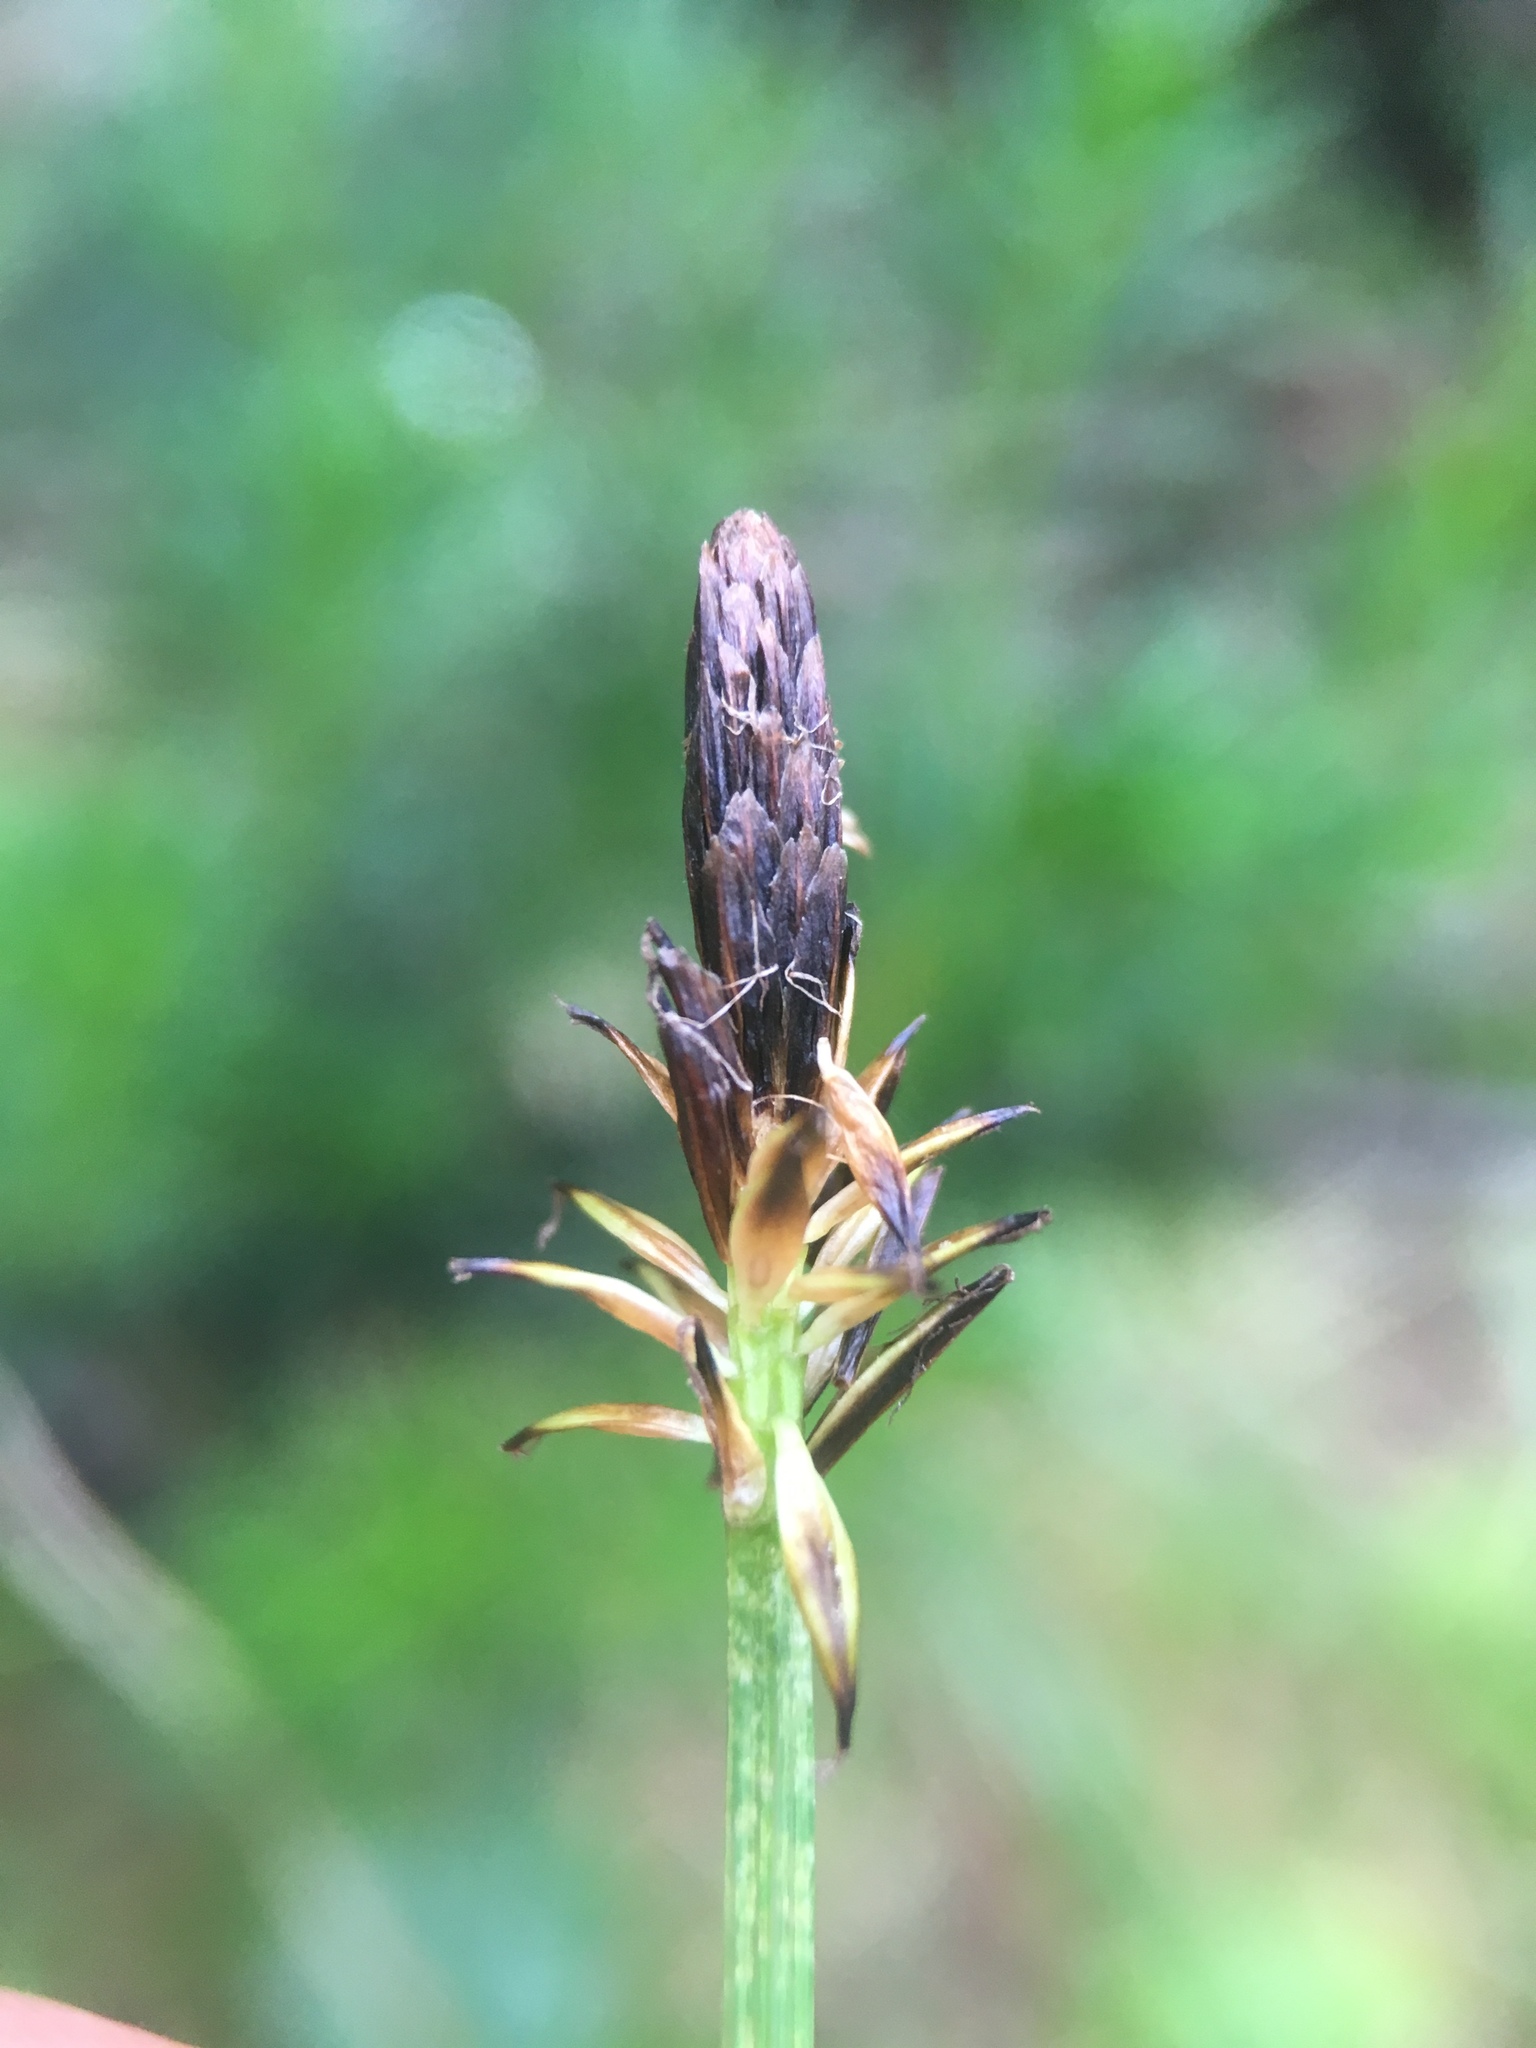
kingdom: Plantae
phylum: Tracheophyta
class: Liliopsida
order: Poales
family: Cyperaceae
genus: Carex
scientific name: Carex nigricans
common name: Black alpine sedge
